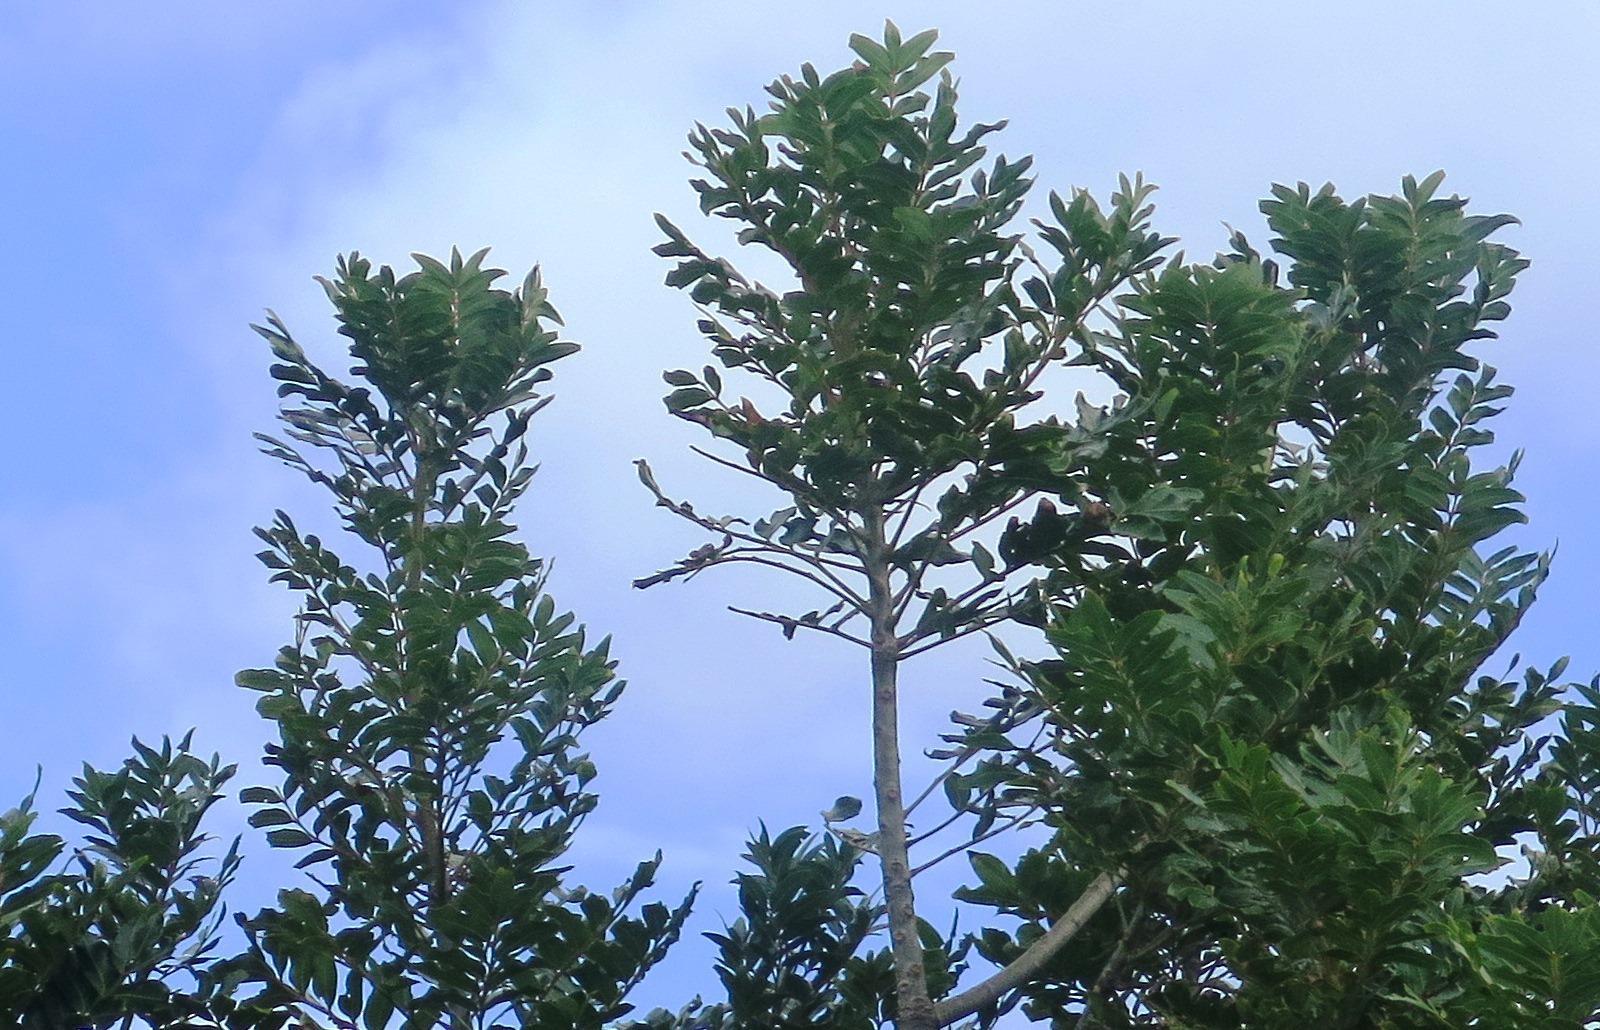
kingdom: Plantae
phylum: Tracheophyta
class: Magnoliopsida
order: Sapindales
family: Anacardiaceae
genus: Harpephyllum
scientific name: Harpephyllum caffrum
